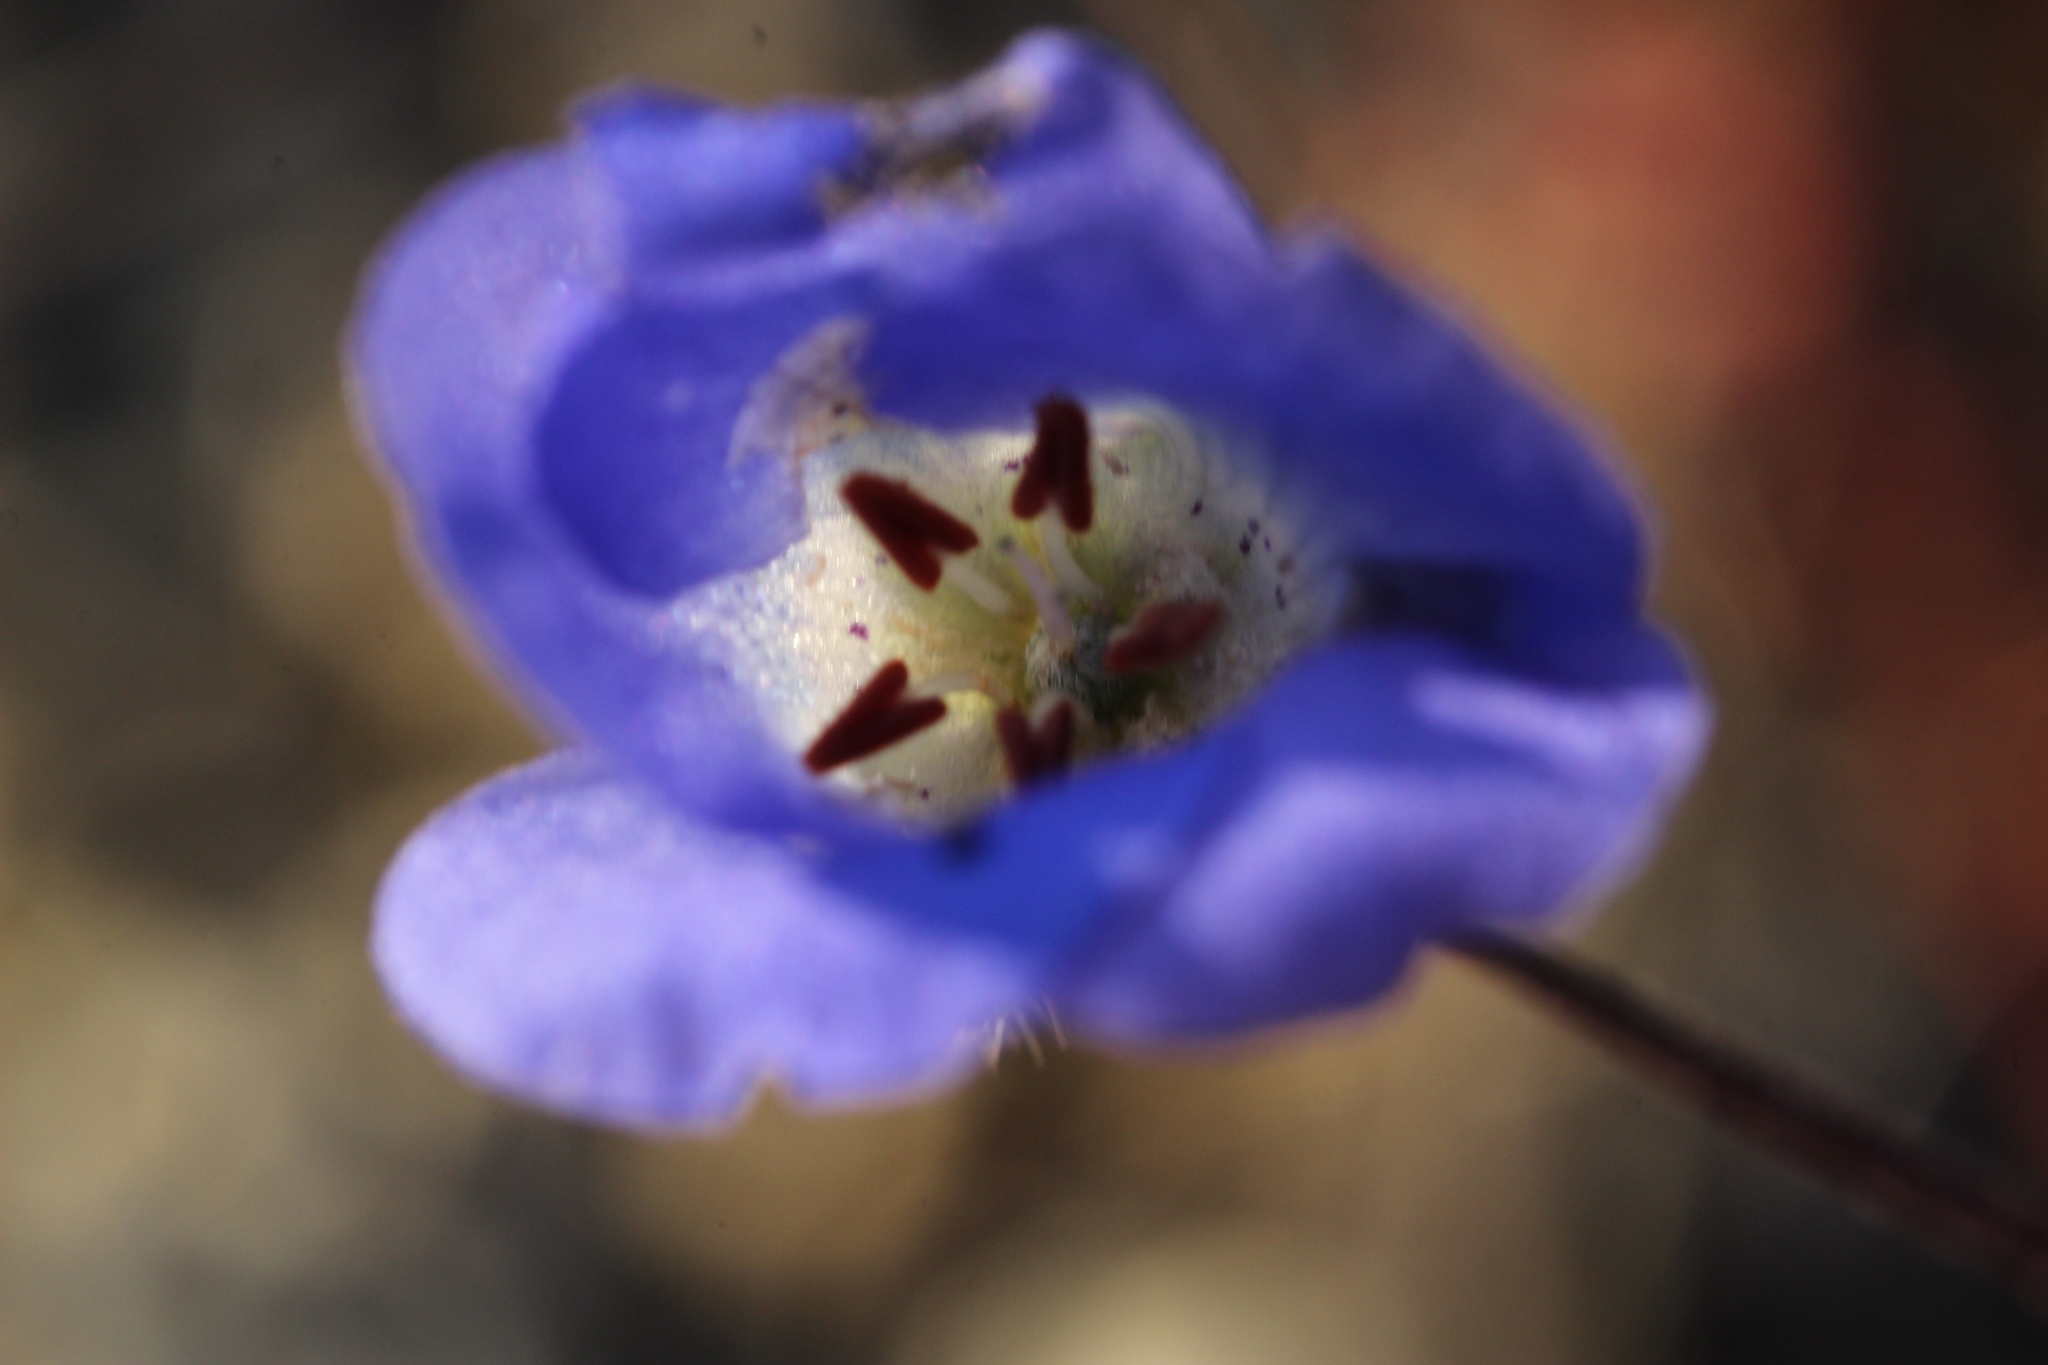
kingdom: Plantae
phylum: Tracheophyta
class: Magnoliopsida
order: Boraginales
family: Hydrophyllaceae
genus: Phacelia
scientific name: Phacelia minor
